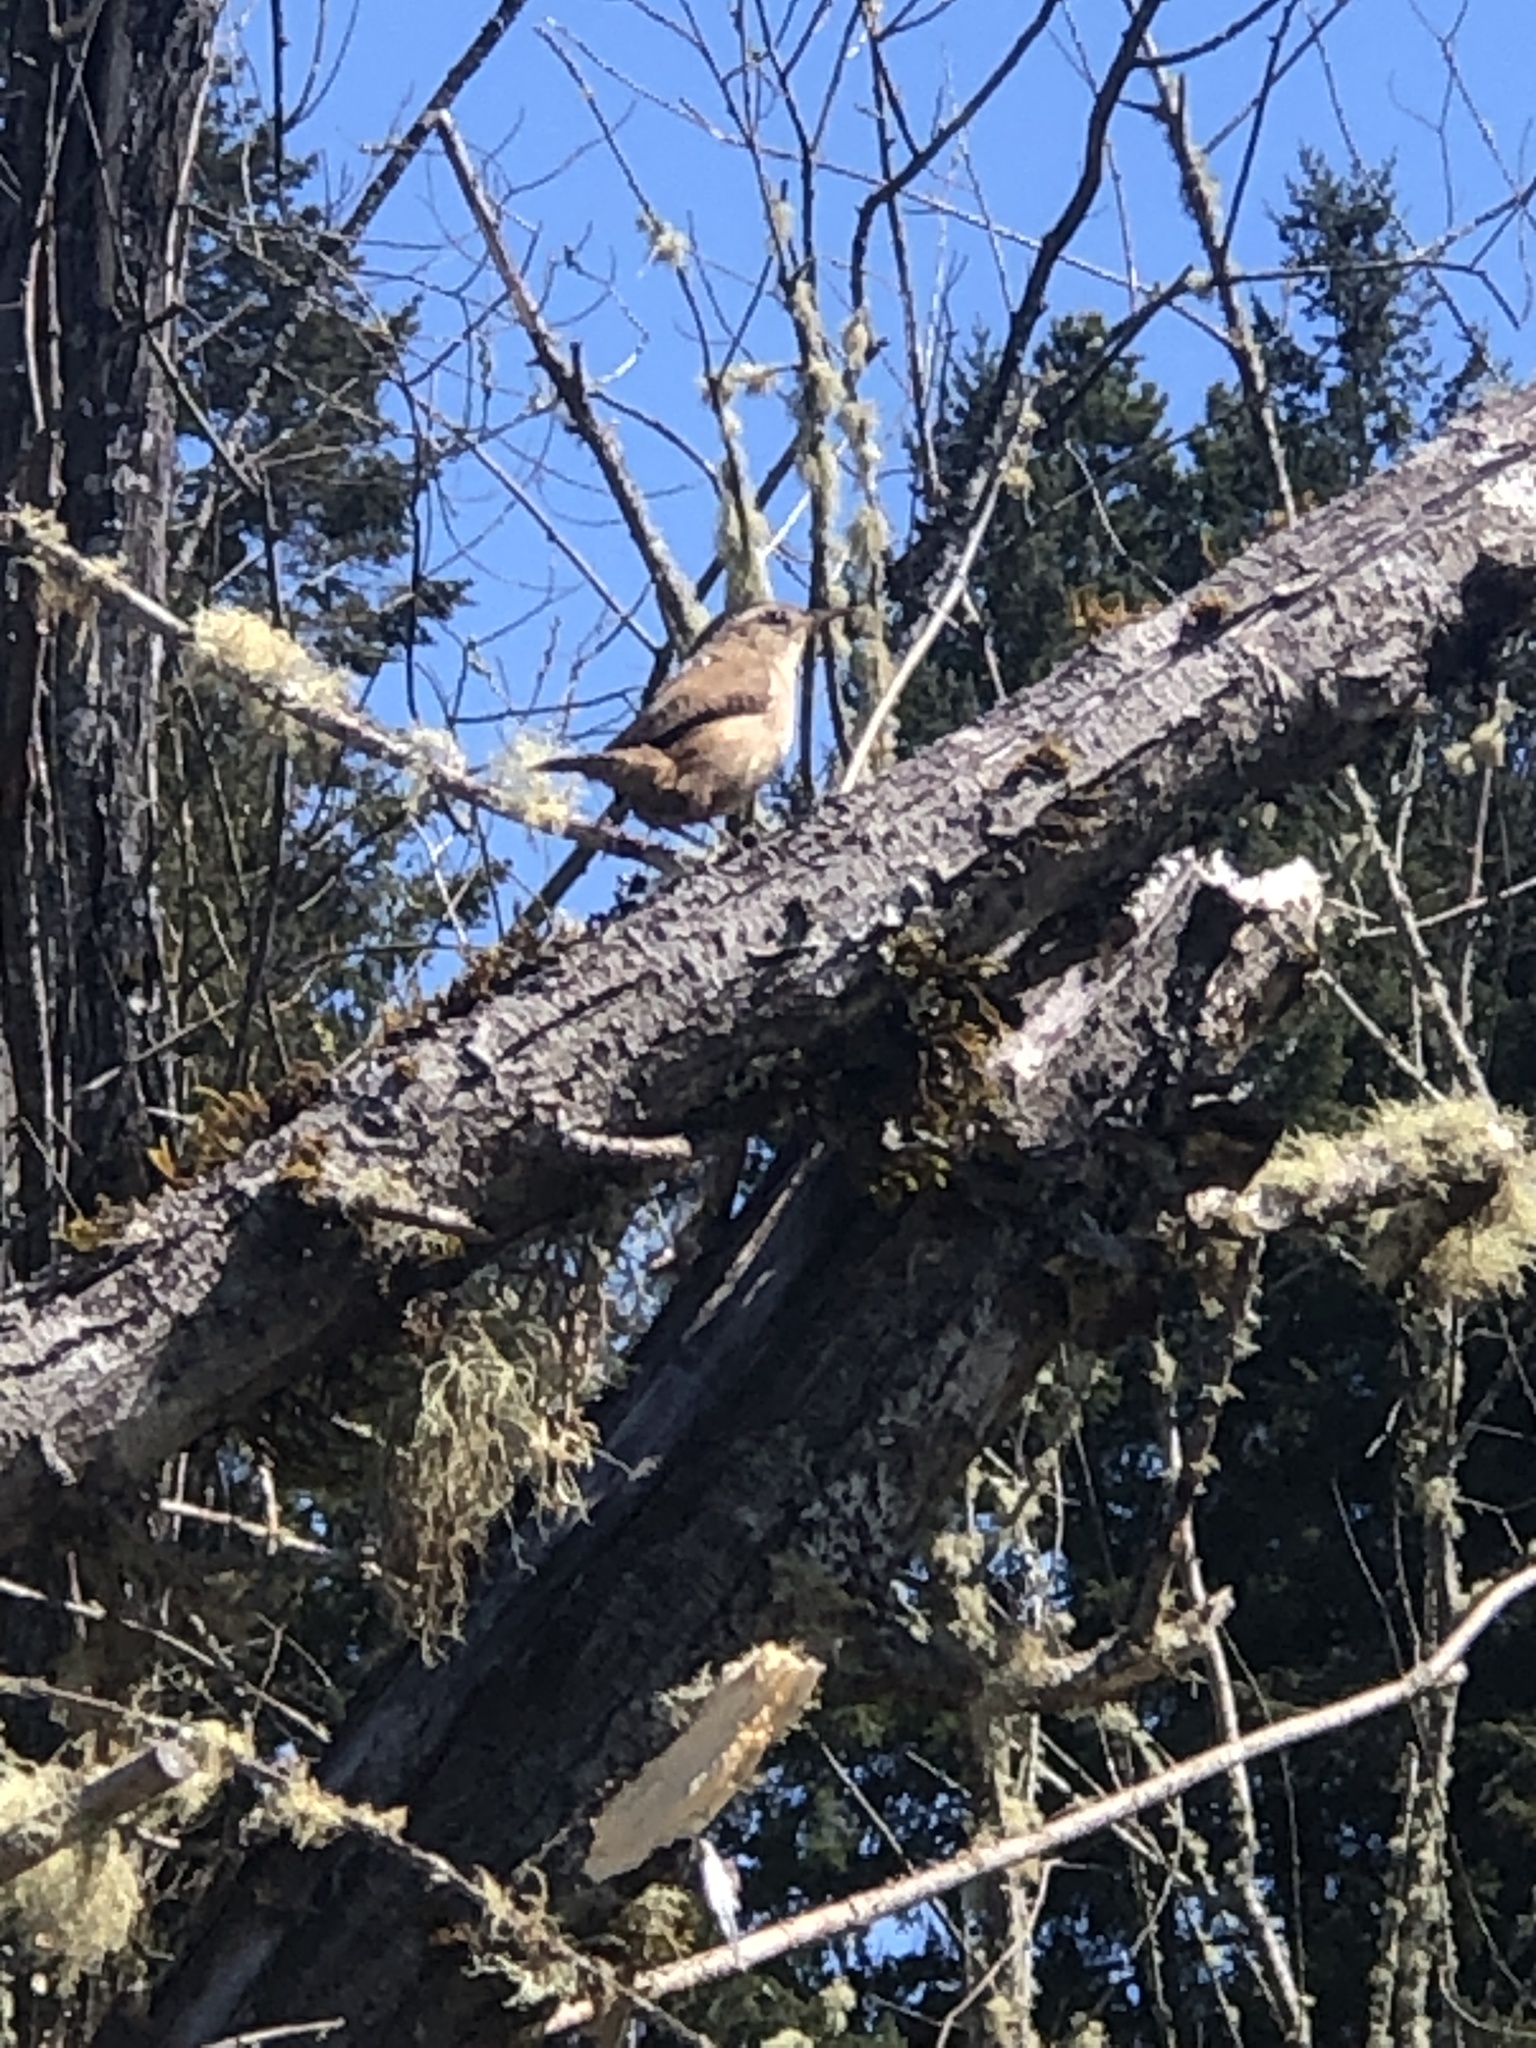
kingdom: Animalia
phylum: Chordata
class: Aves
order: Passeriformes
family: Troglodytidae
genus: Thryomanes
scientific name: Thryomanes bewickii
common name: Bewick's wren
